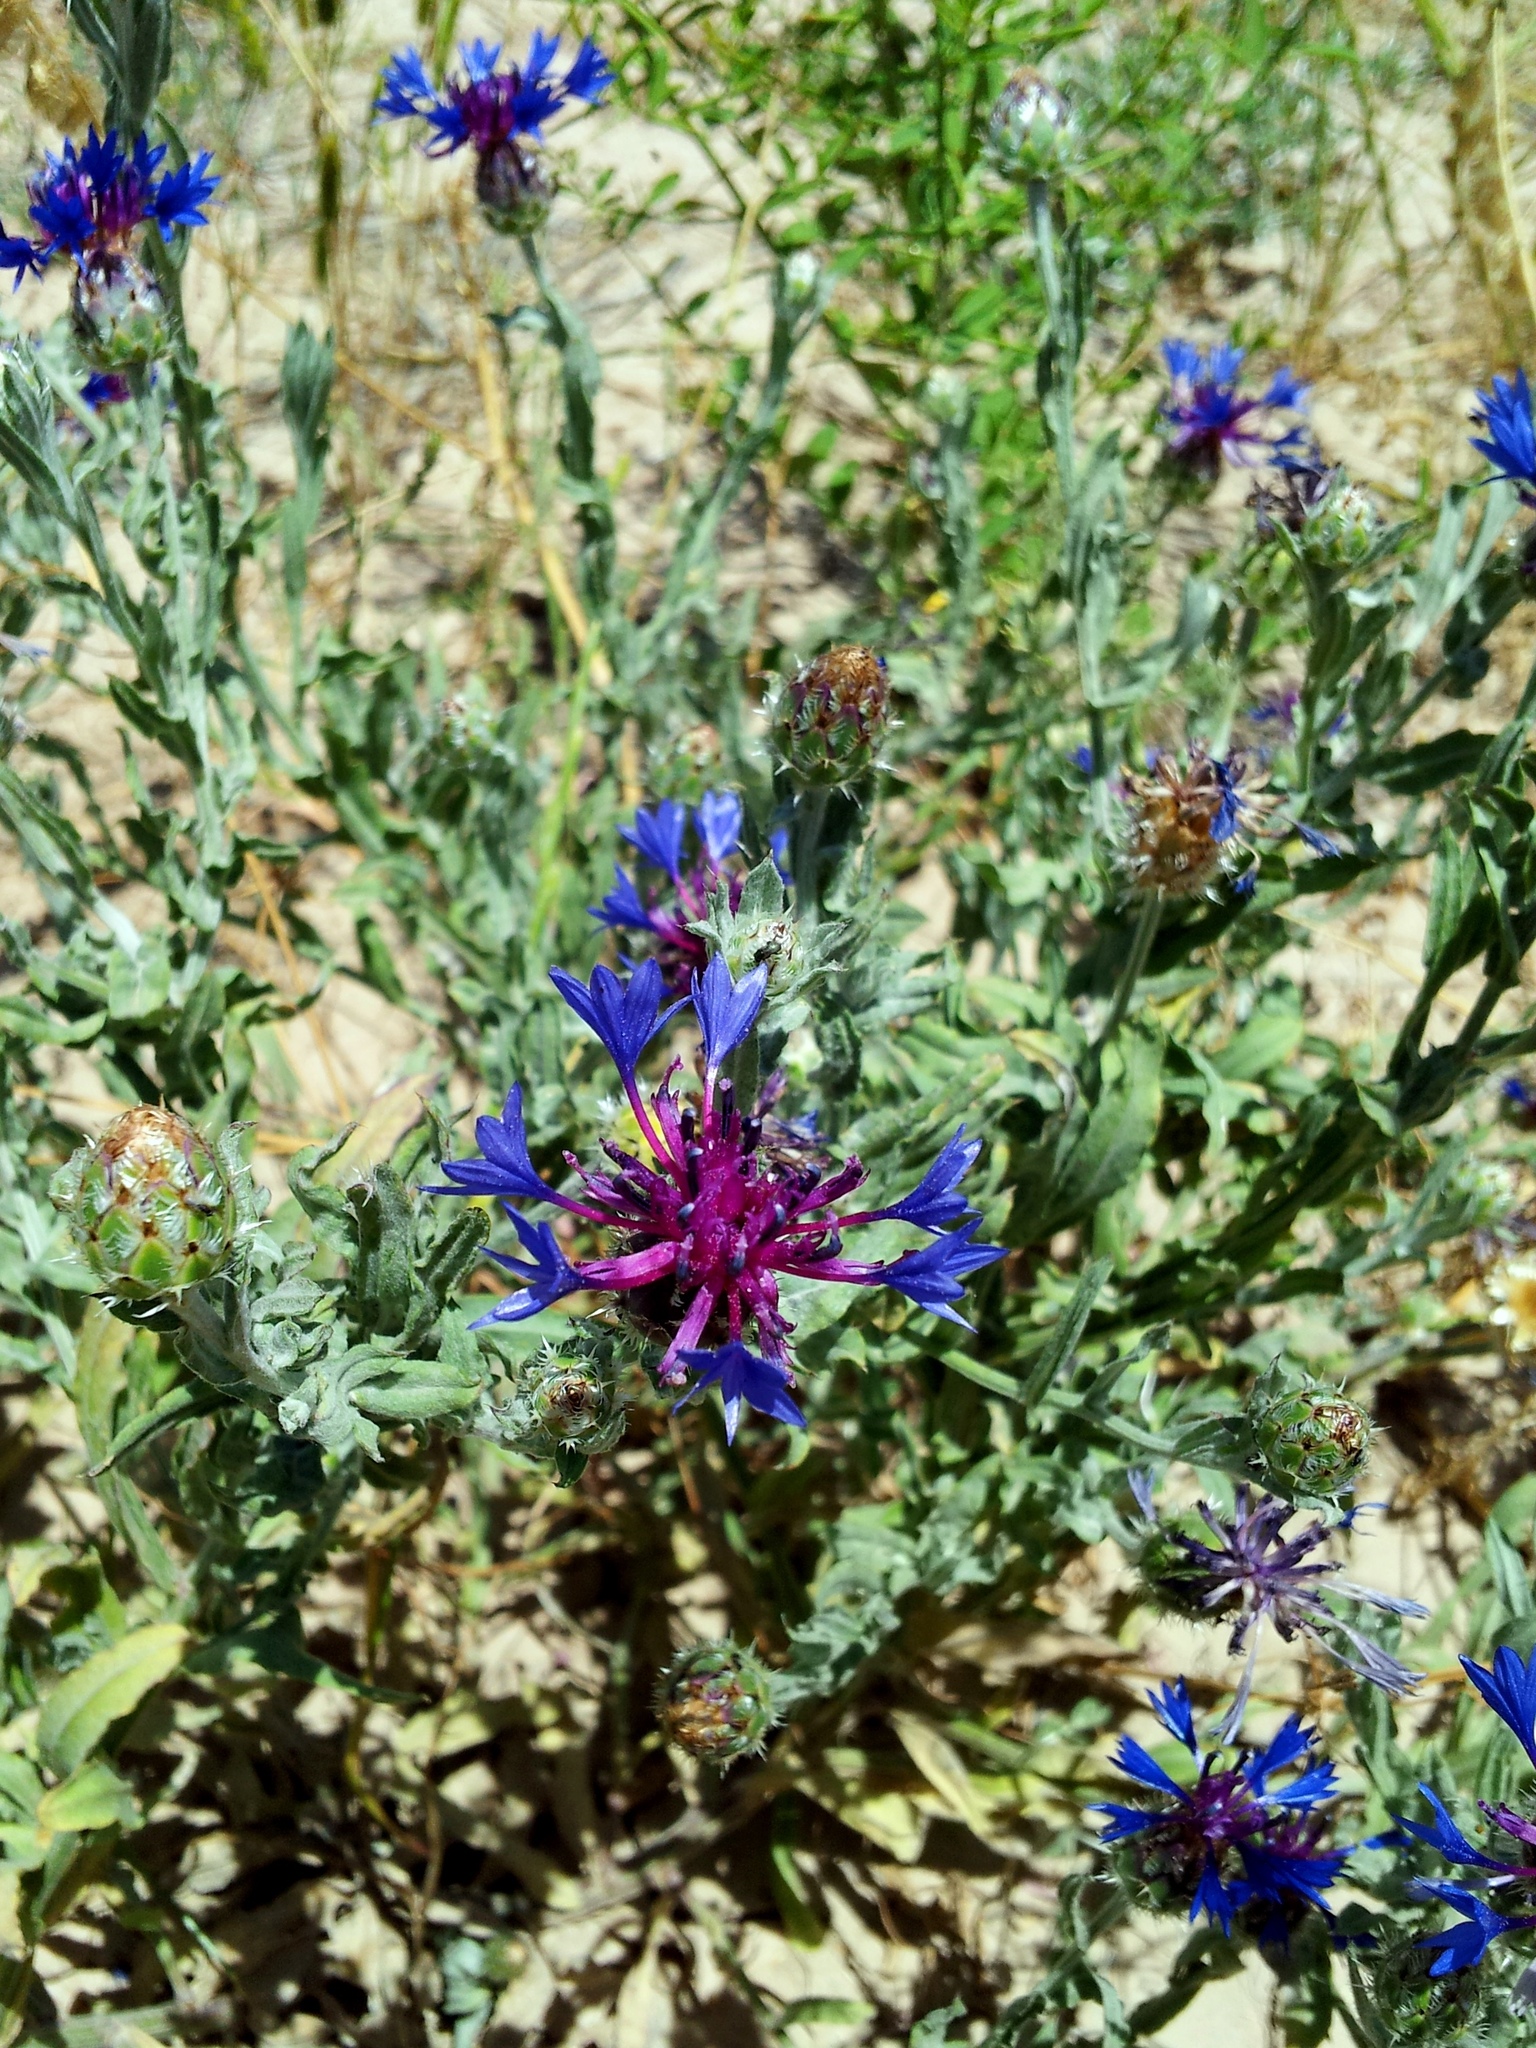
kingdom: Plantae
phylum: Tracheophyta
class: Magnoliopsida
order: Asterales
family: Asteraceae
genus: Centaurea
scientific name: Centaurea depressa
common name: Iranian knapweed
